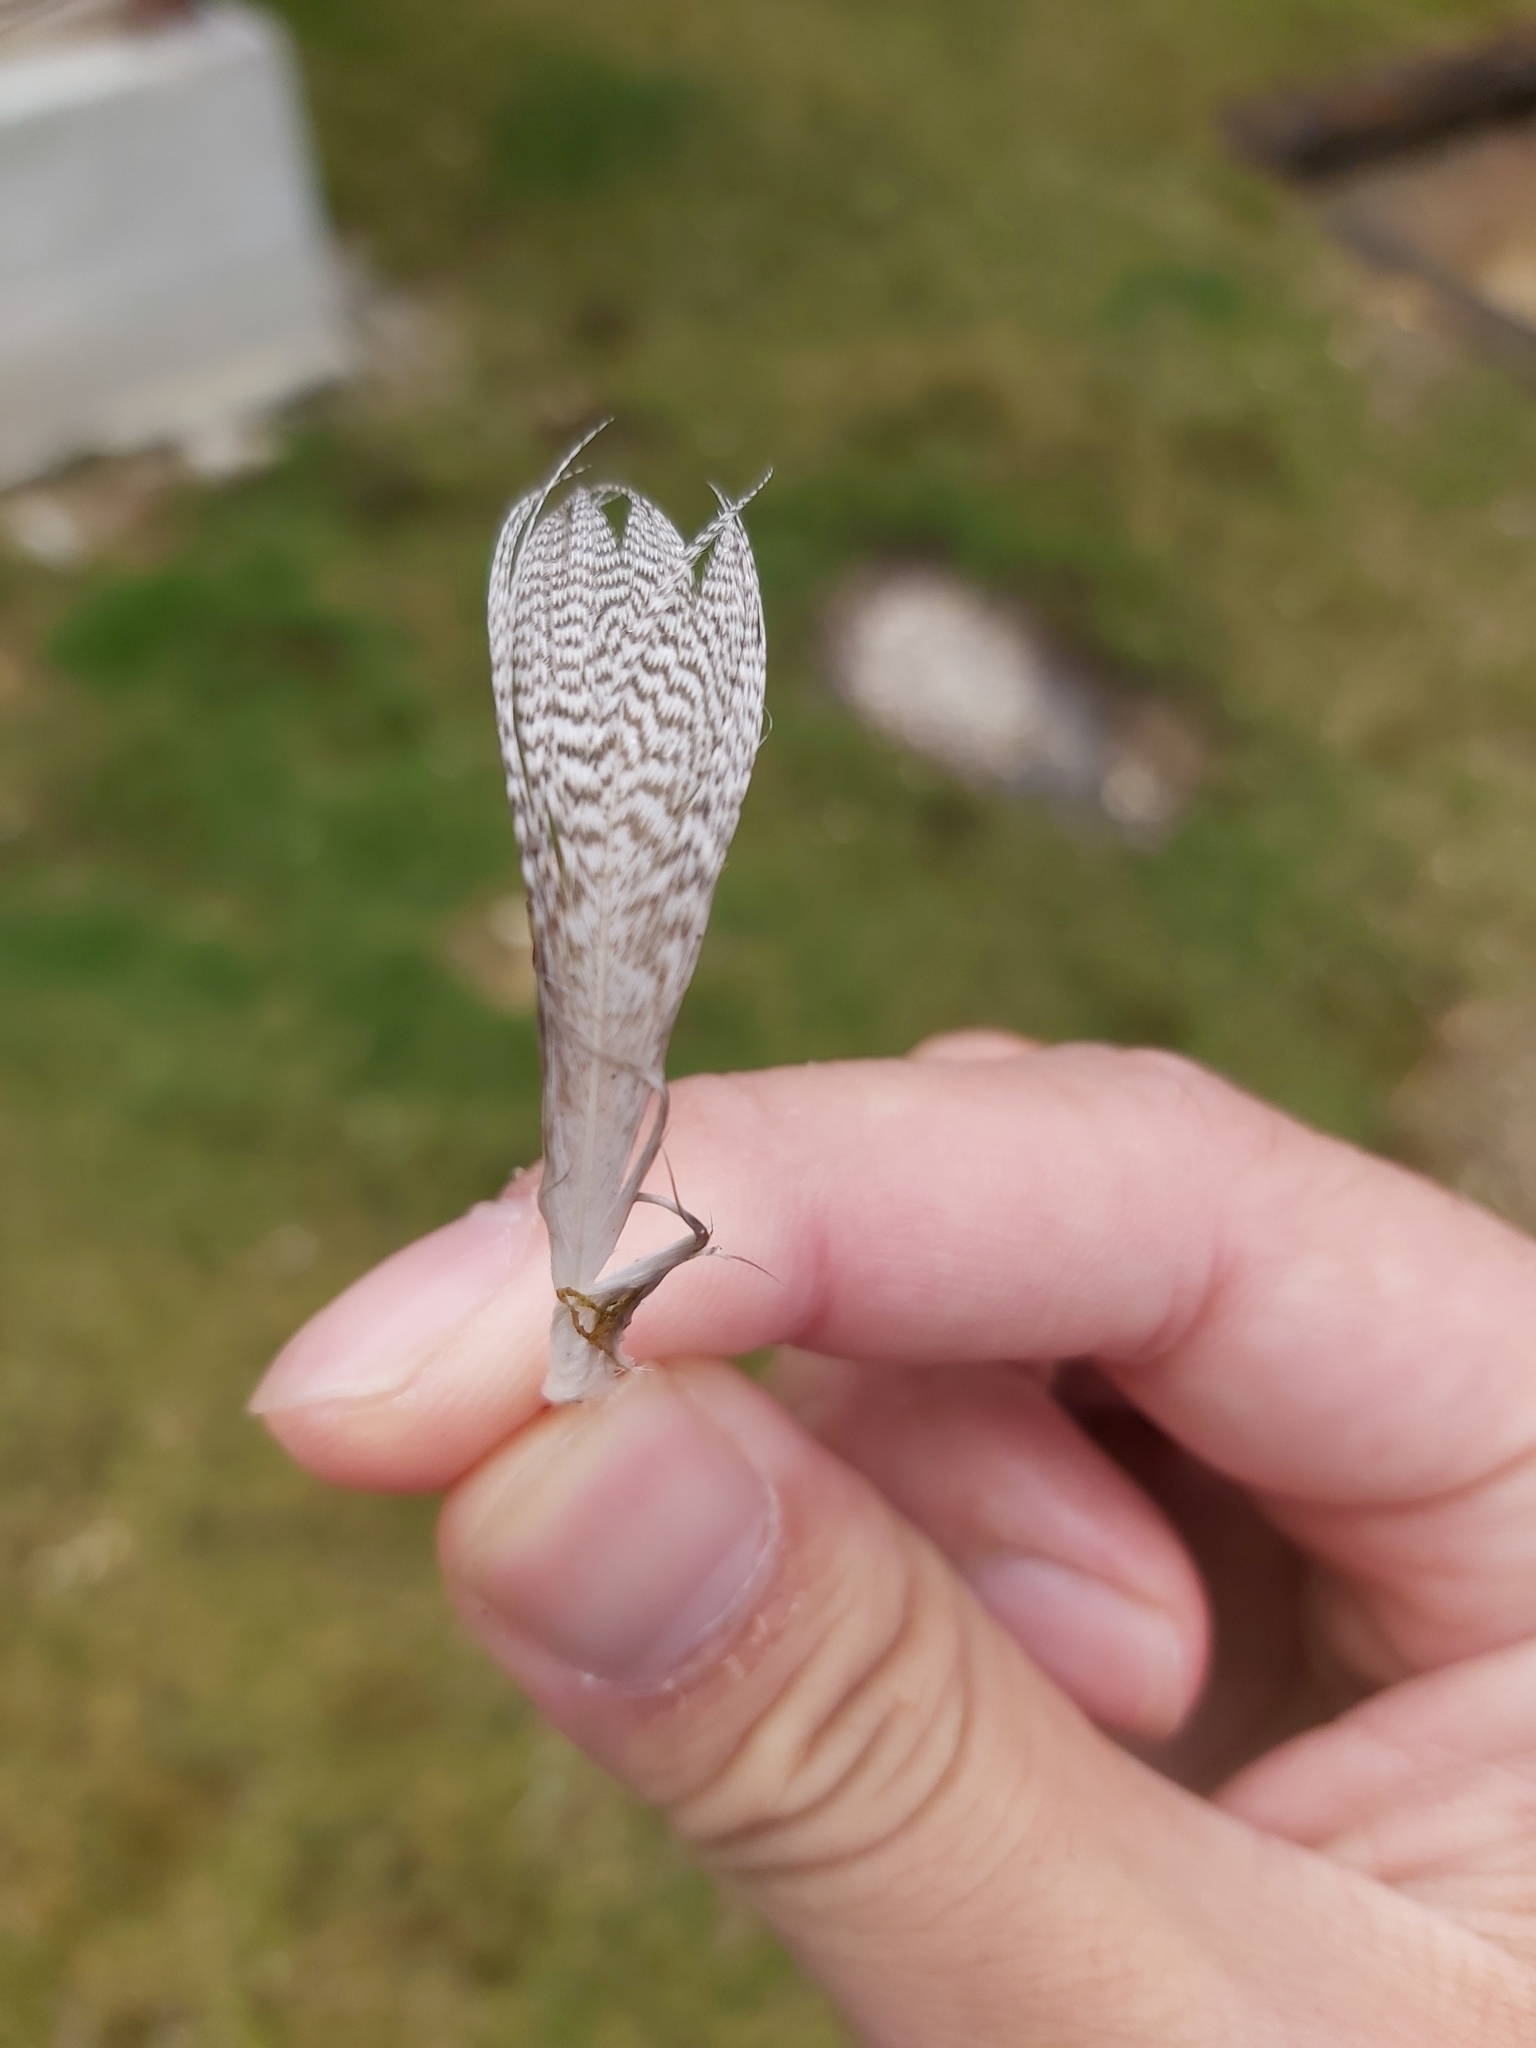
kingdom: Animalia
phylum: Chordata
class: Aves
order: Anseriformes
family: Anatidae
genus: Anas
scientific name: Anas platyrhynchos
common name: Mallard
